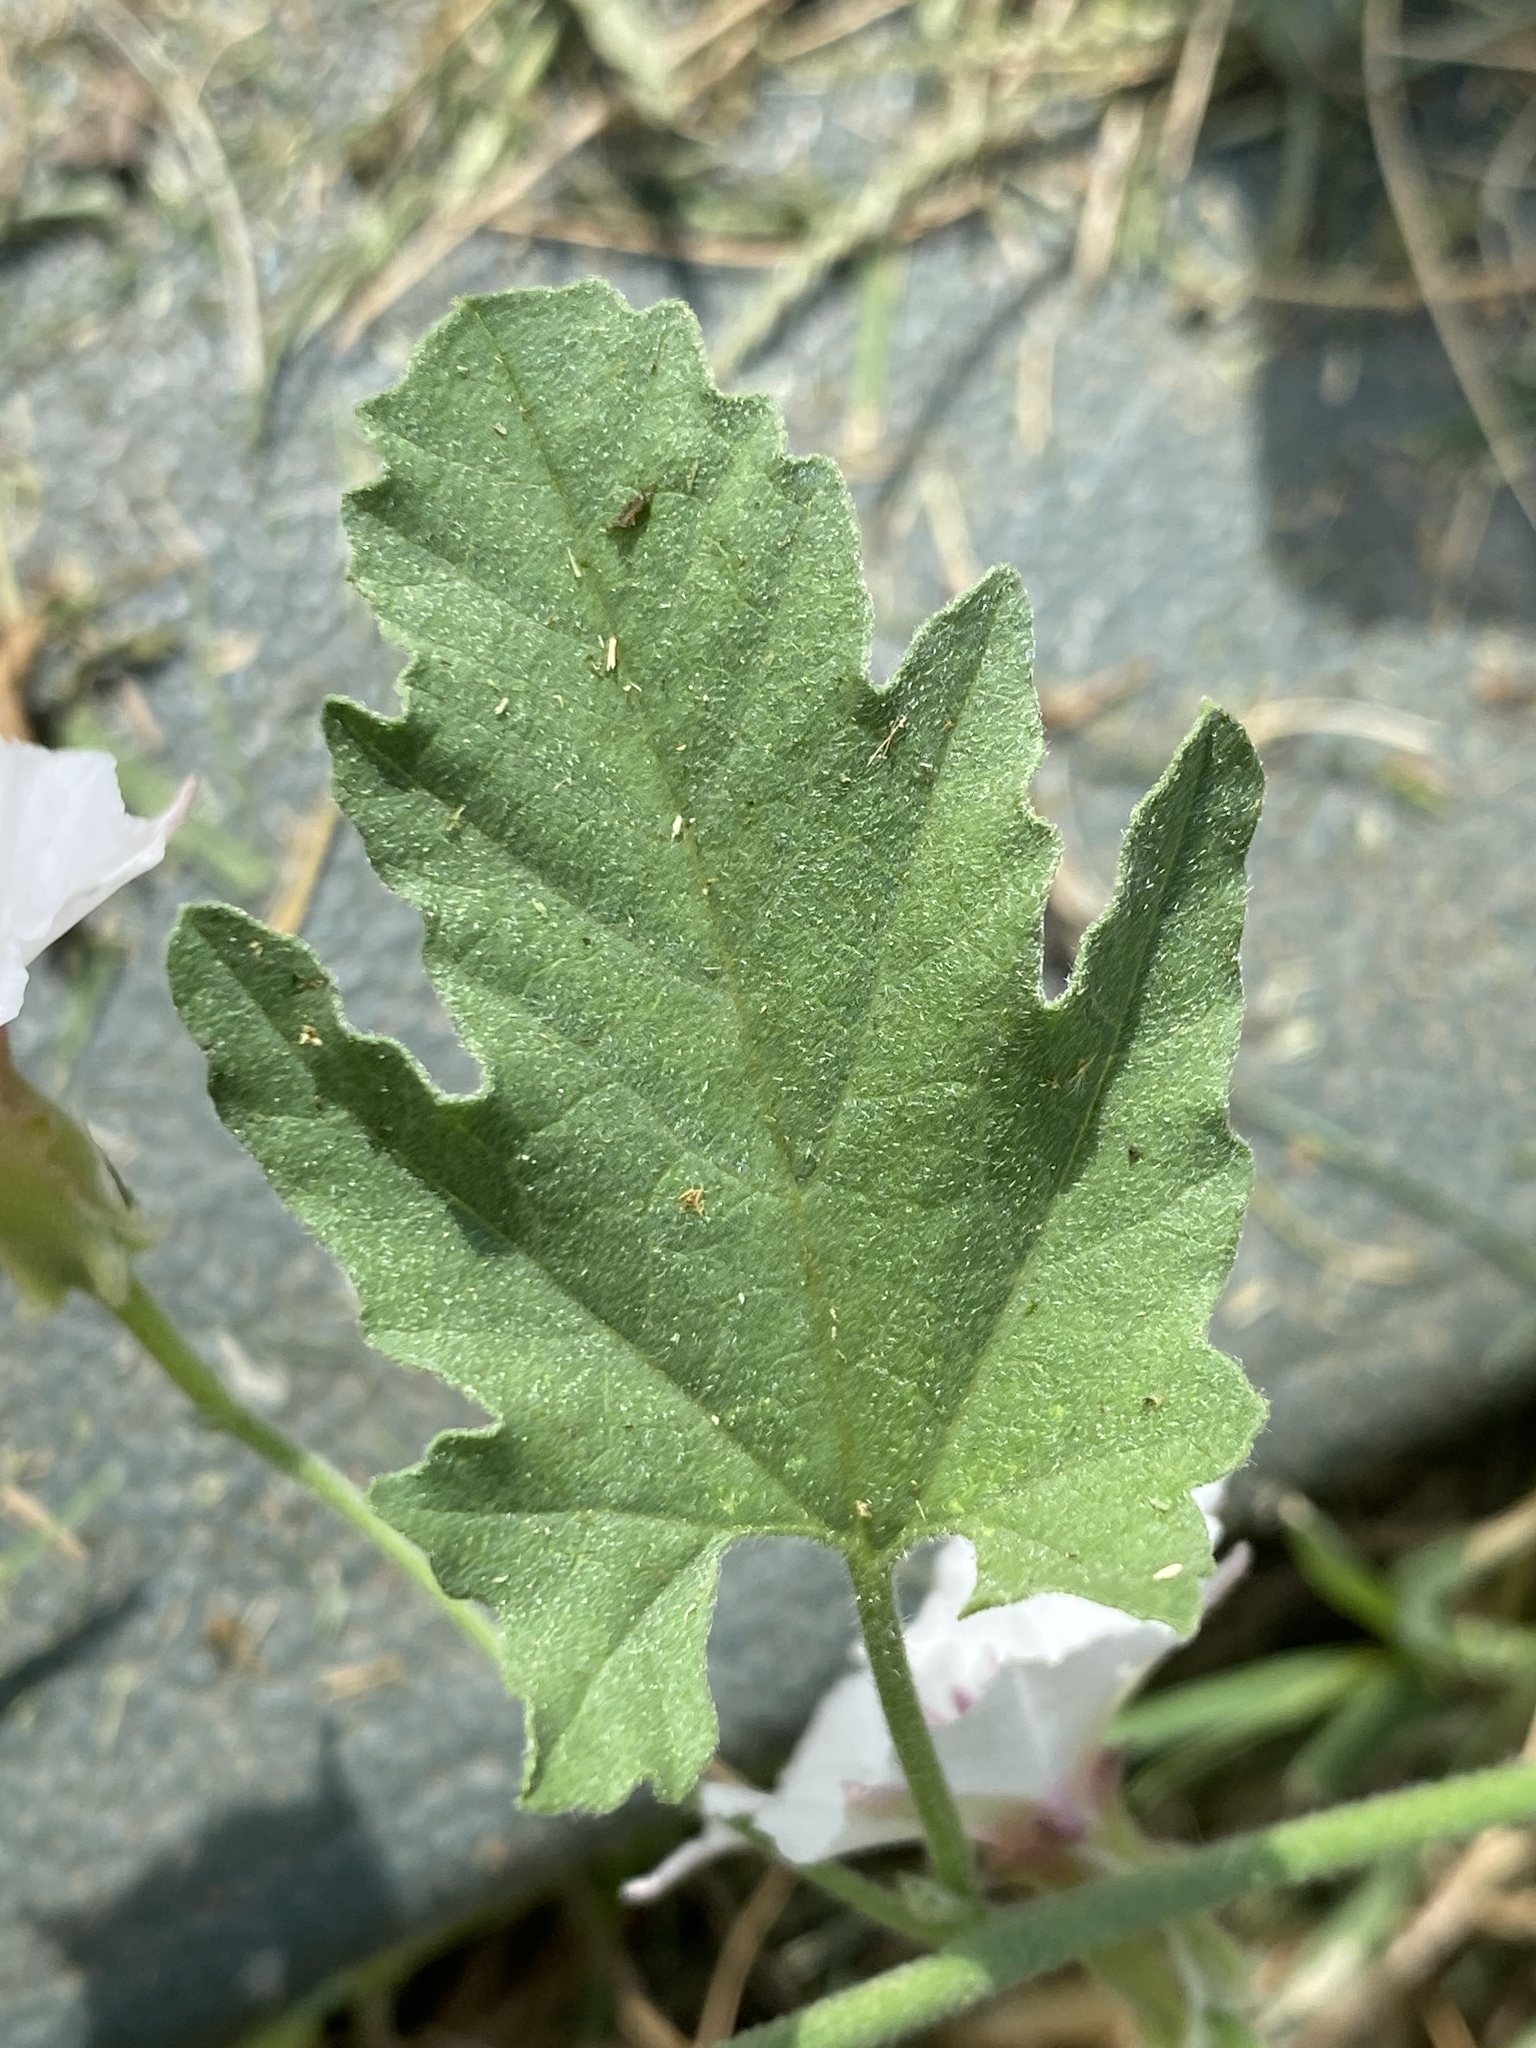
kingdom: Plantae
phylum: Tracheophyta
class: Magnoliopsida
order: Solanales
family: Convolvulaceae
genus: Convolvulus
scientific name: Convolvulus equitans
